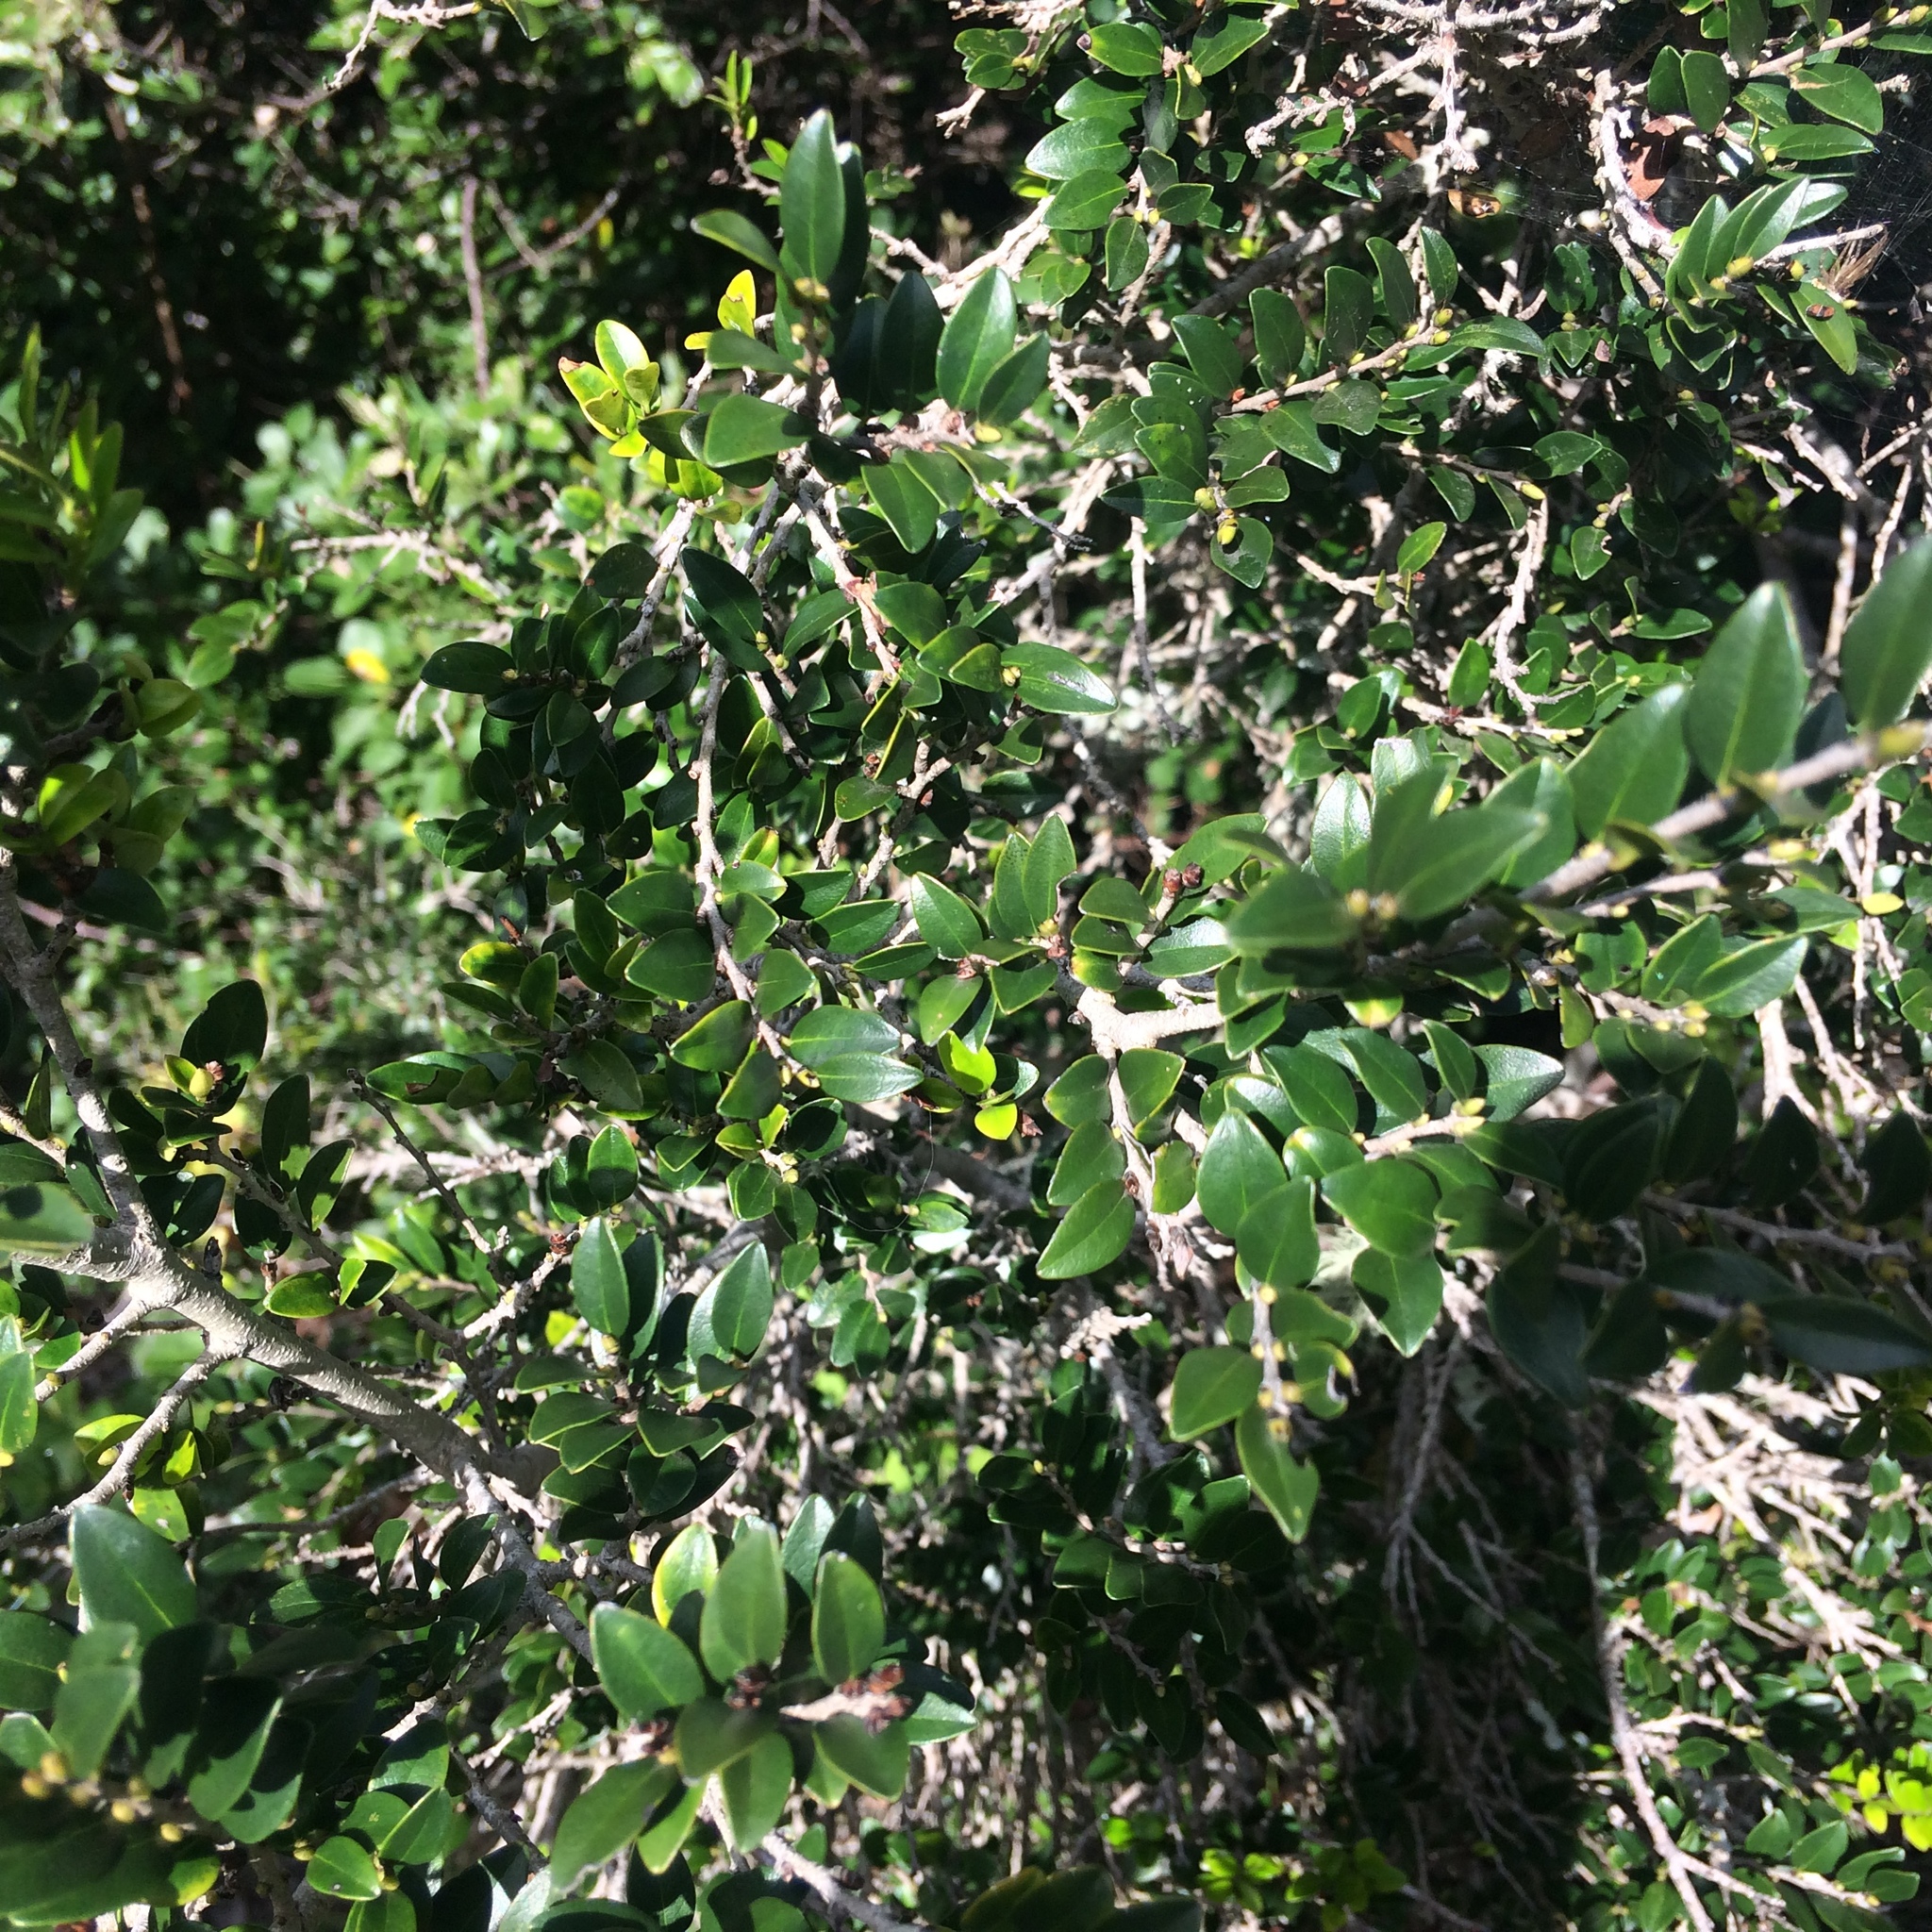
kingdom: Plantae
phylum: Tracheophyta
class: Magnoliopsida
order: Ericales
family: Ebenaceae
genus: Diospyros
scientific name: Diospyros natalensis
